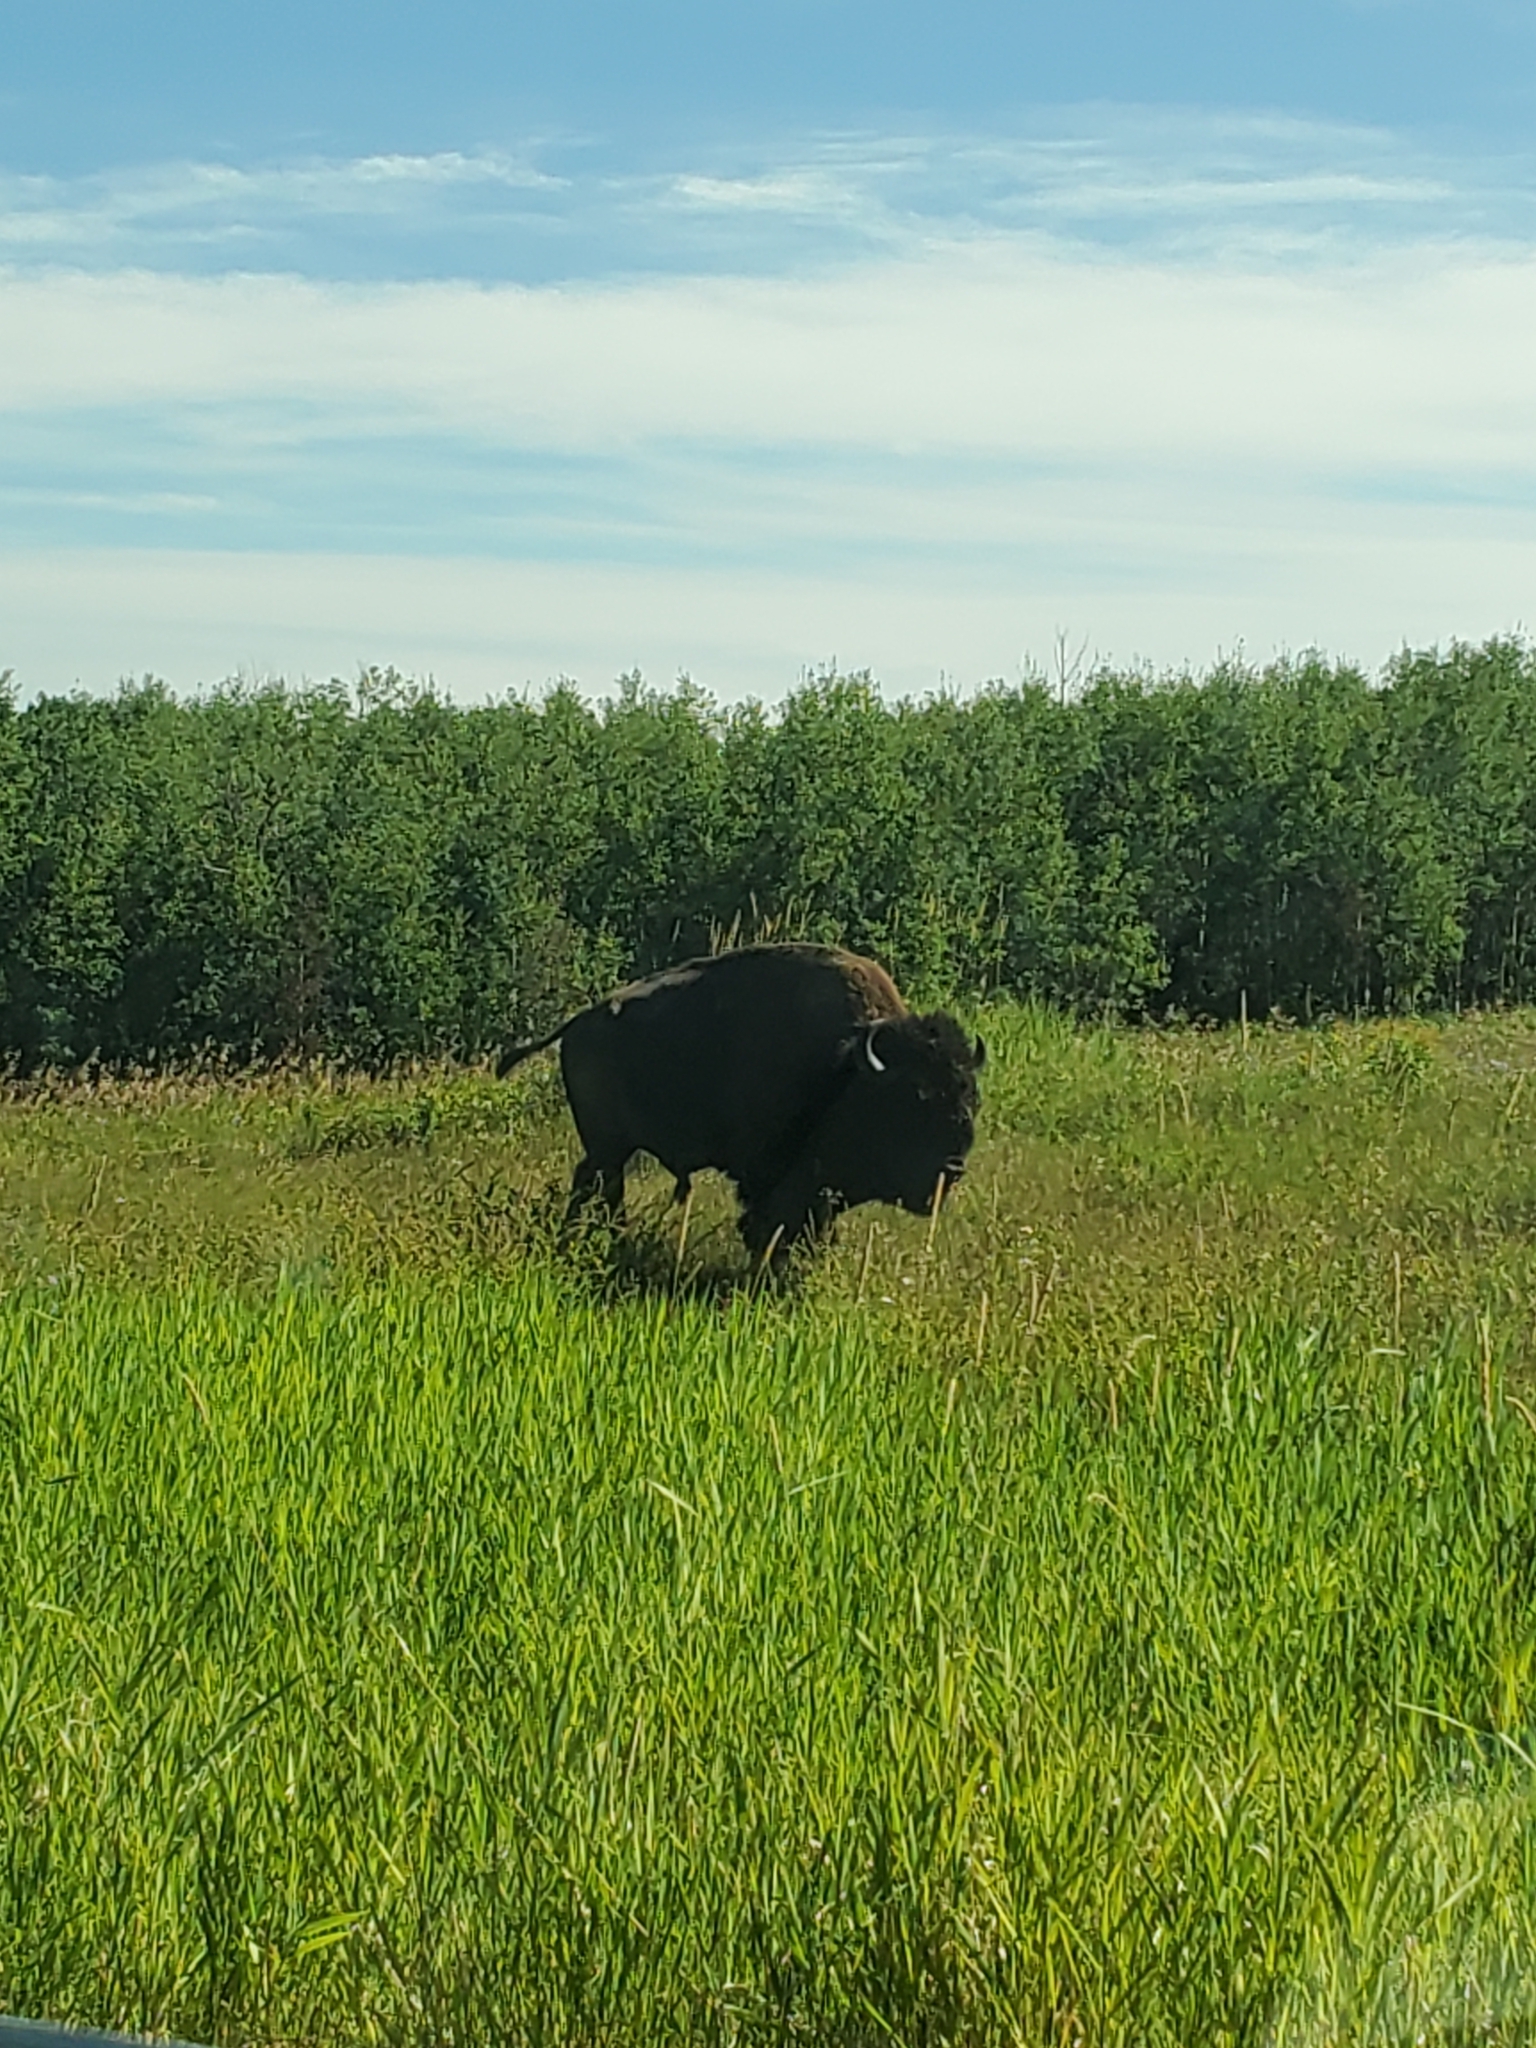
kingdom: Animalia
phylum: Chordata
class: Mammalia
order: Artiodactyla
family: Bovidae
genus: Bison
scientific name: Bison bison
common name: American bison
